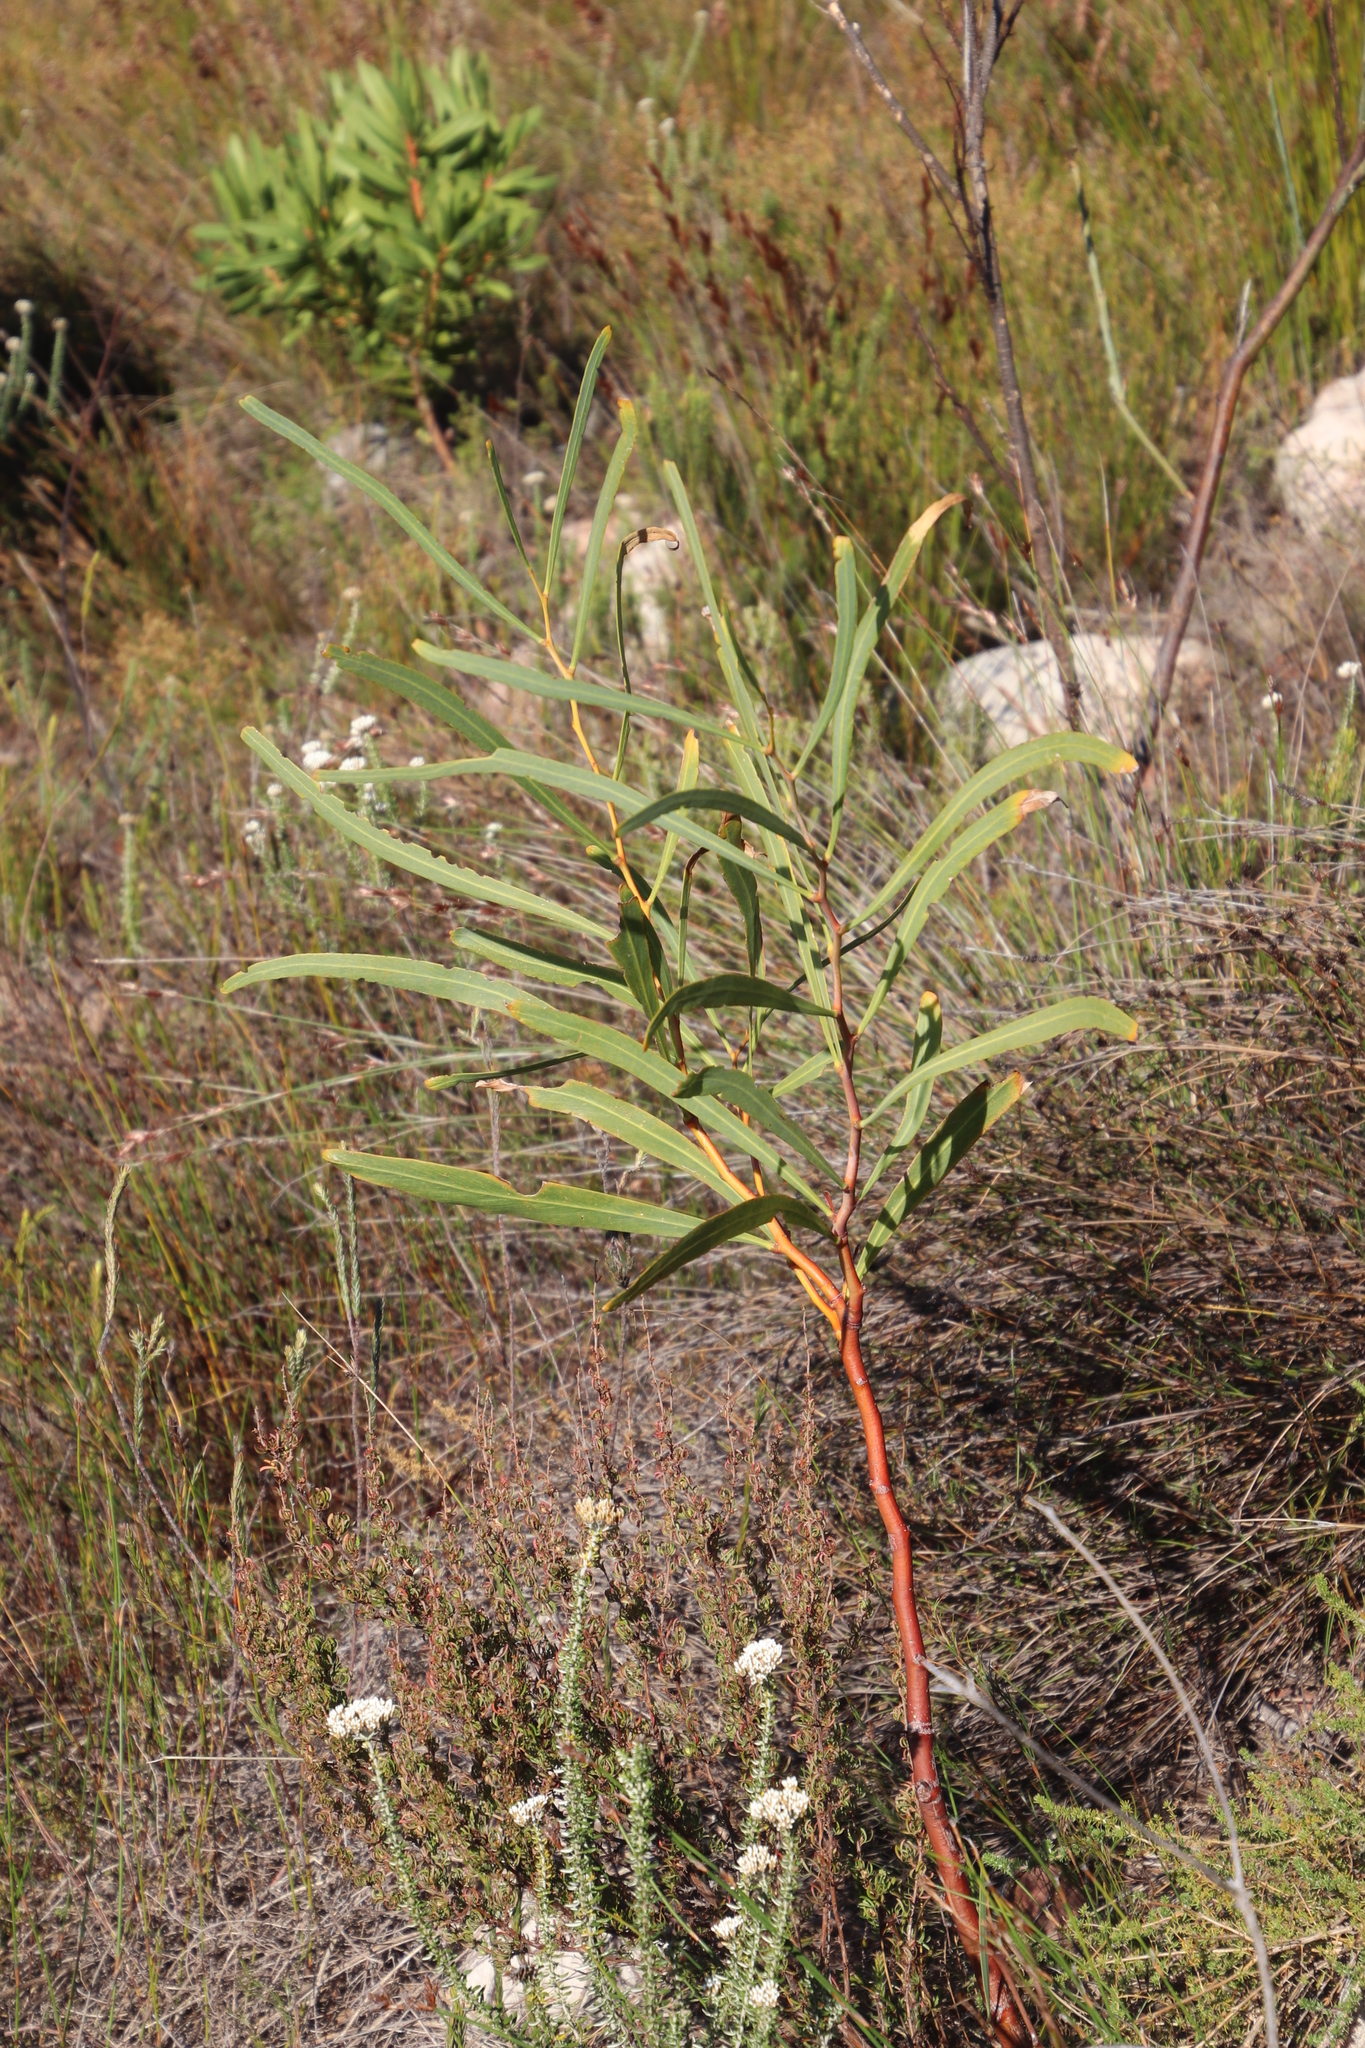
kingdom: Plantae
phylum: Tracheophyta
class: Magnoliopsida
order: Fabales
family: Fabaceae
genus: Acacia
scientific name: Acacia saligna
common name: Orange wattle
